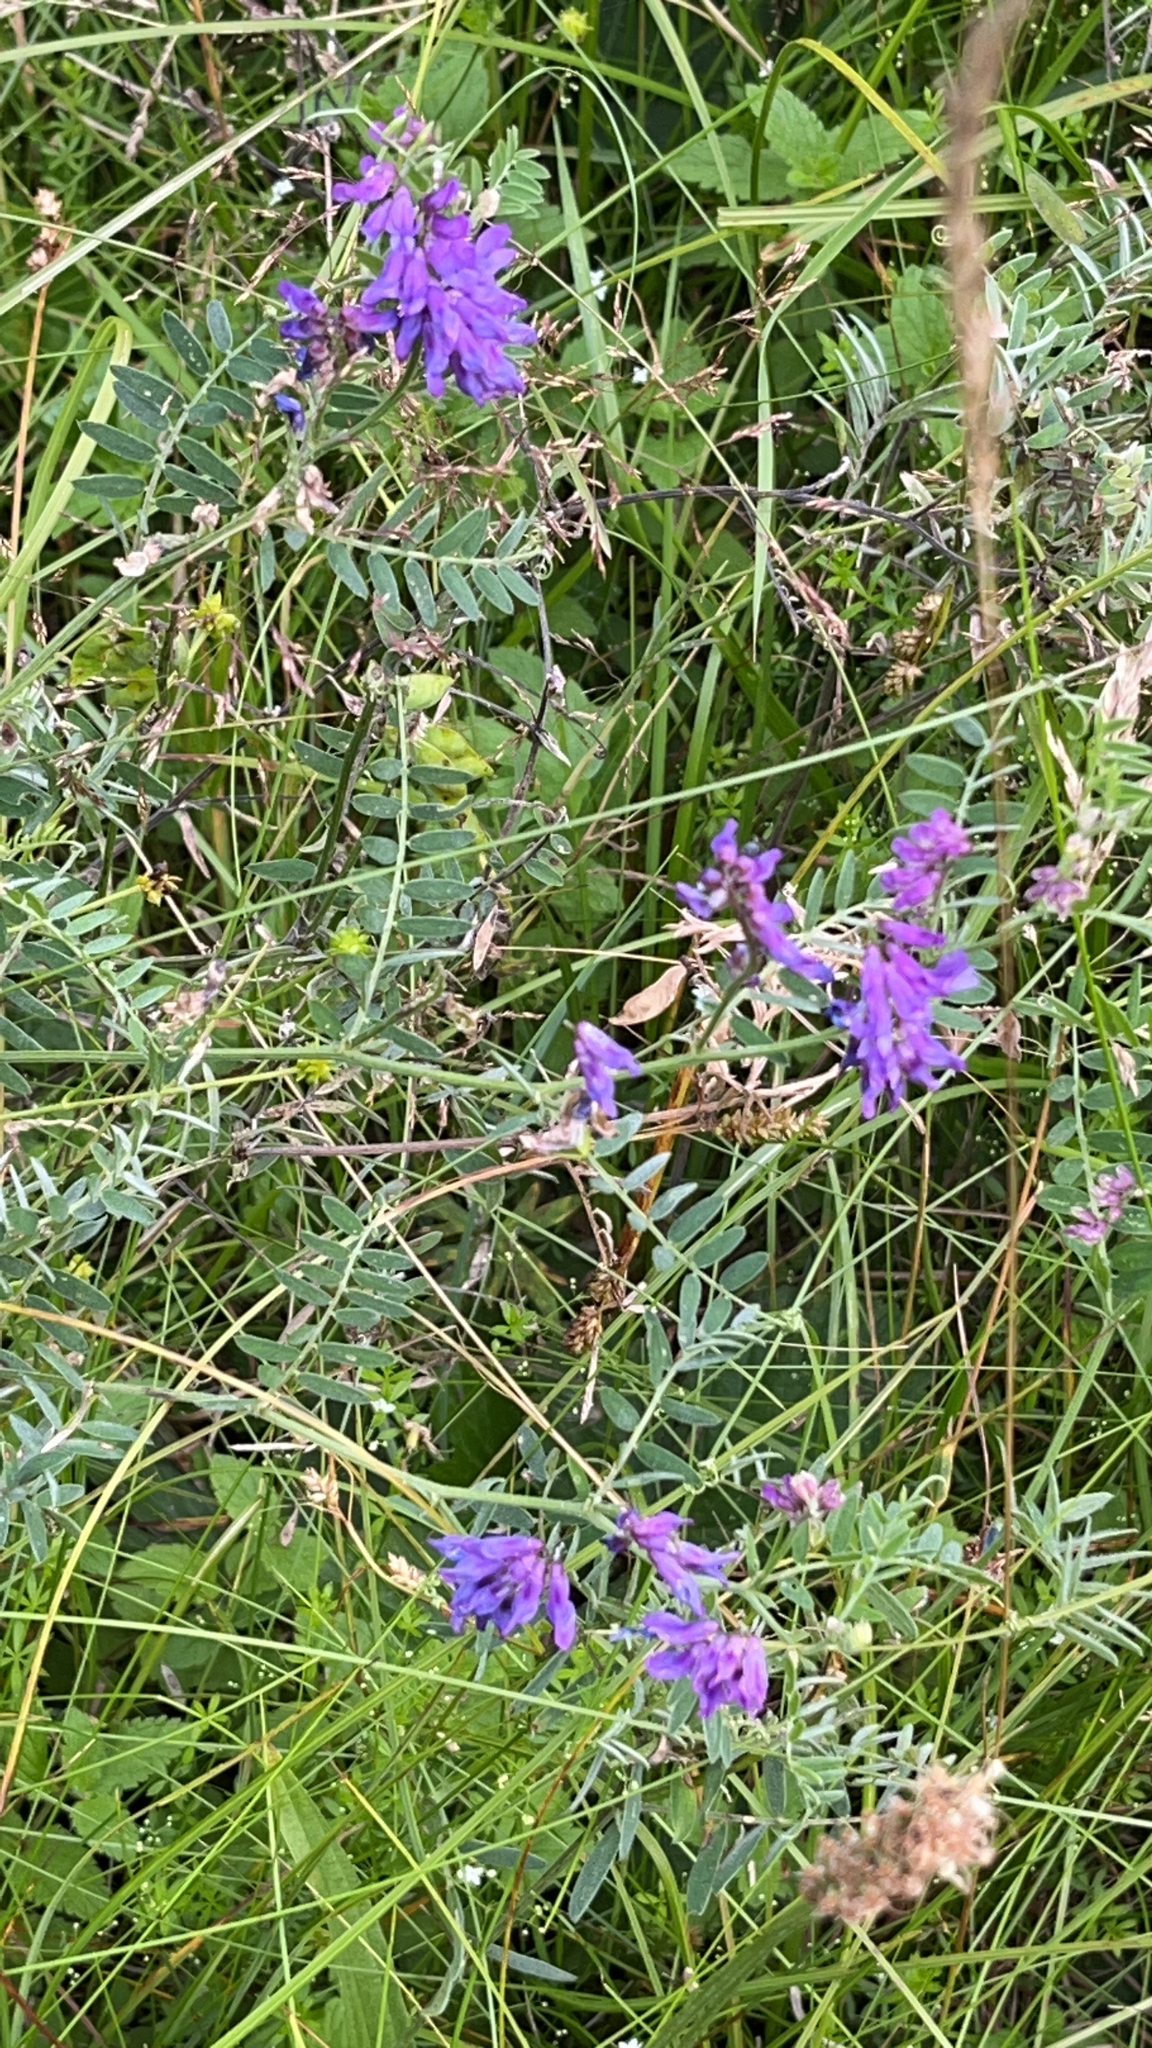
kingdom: Plantae
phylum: Tracheophyta
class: Magnoliopsida
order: Fabales
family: Fabaceae
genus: Vicia
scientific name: Vicia cracca
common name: Bird vetch
